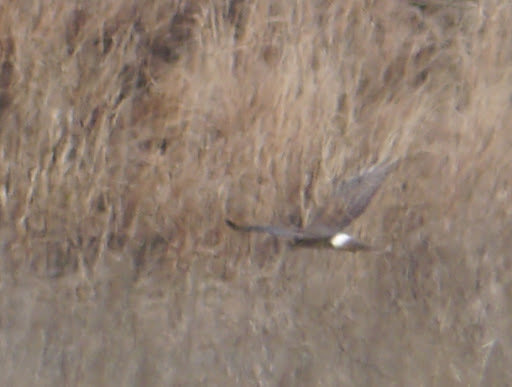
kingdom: Animalia
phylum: Chordata
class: Aves
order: Accipitriformes
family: Accipitridae
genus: Circus
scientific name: Circus cyaneus
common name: Hen harrier
